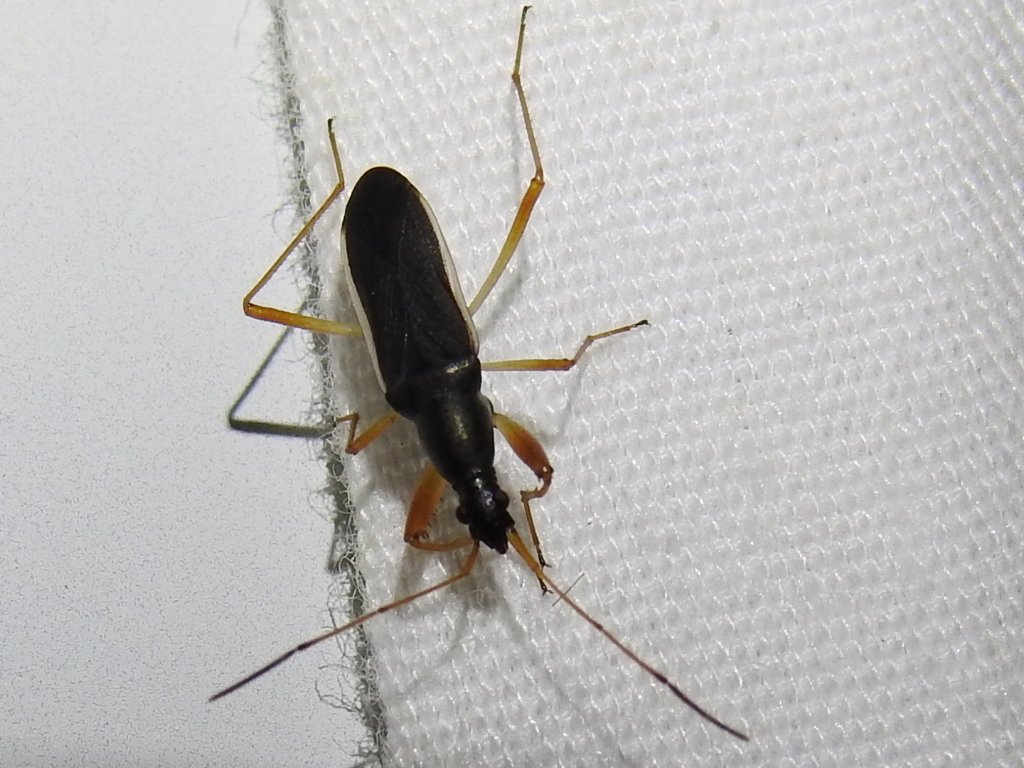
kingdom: Animalia
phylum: Arthropoda
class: Insecta
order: Hemiptera
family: Rhyparochromidae
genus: Cnemodus
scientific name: Cnemodus mavortius
